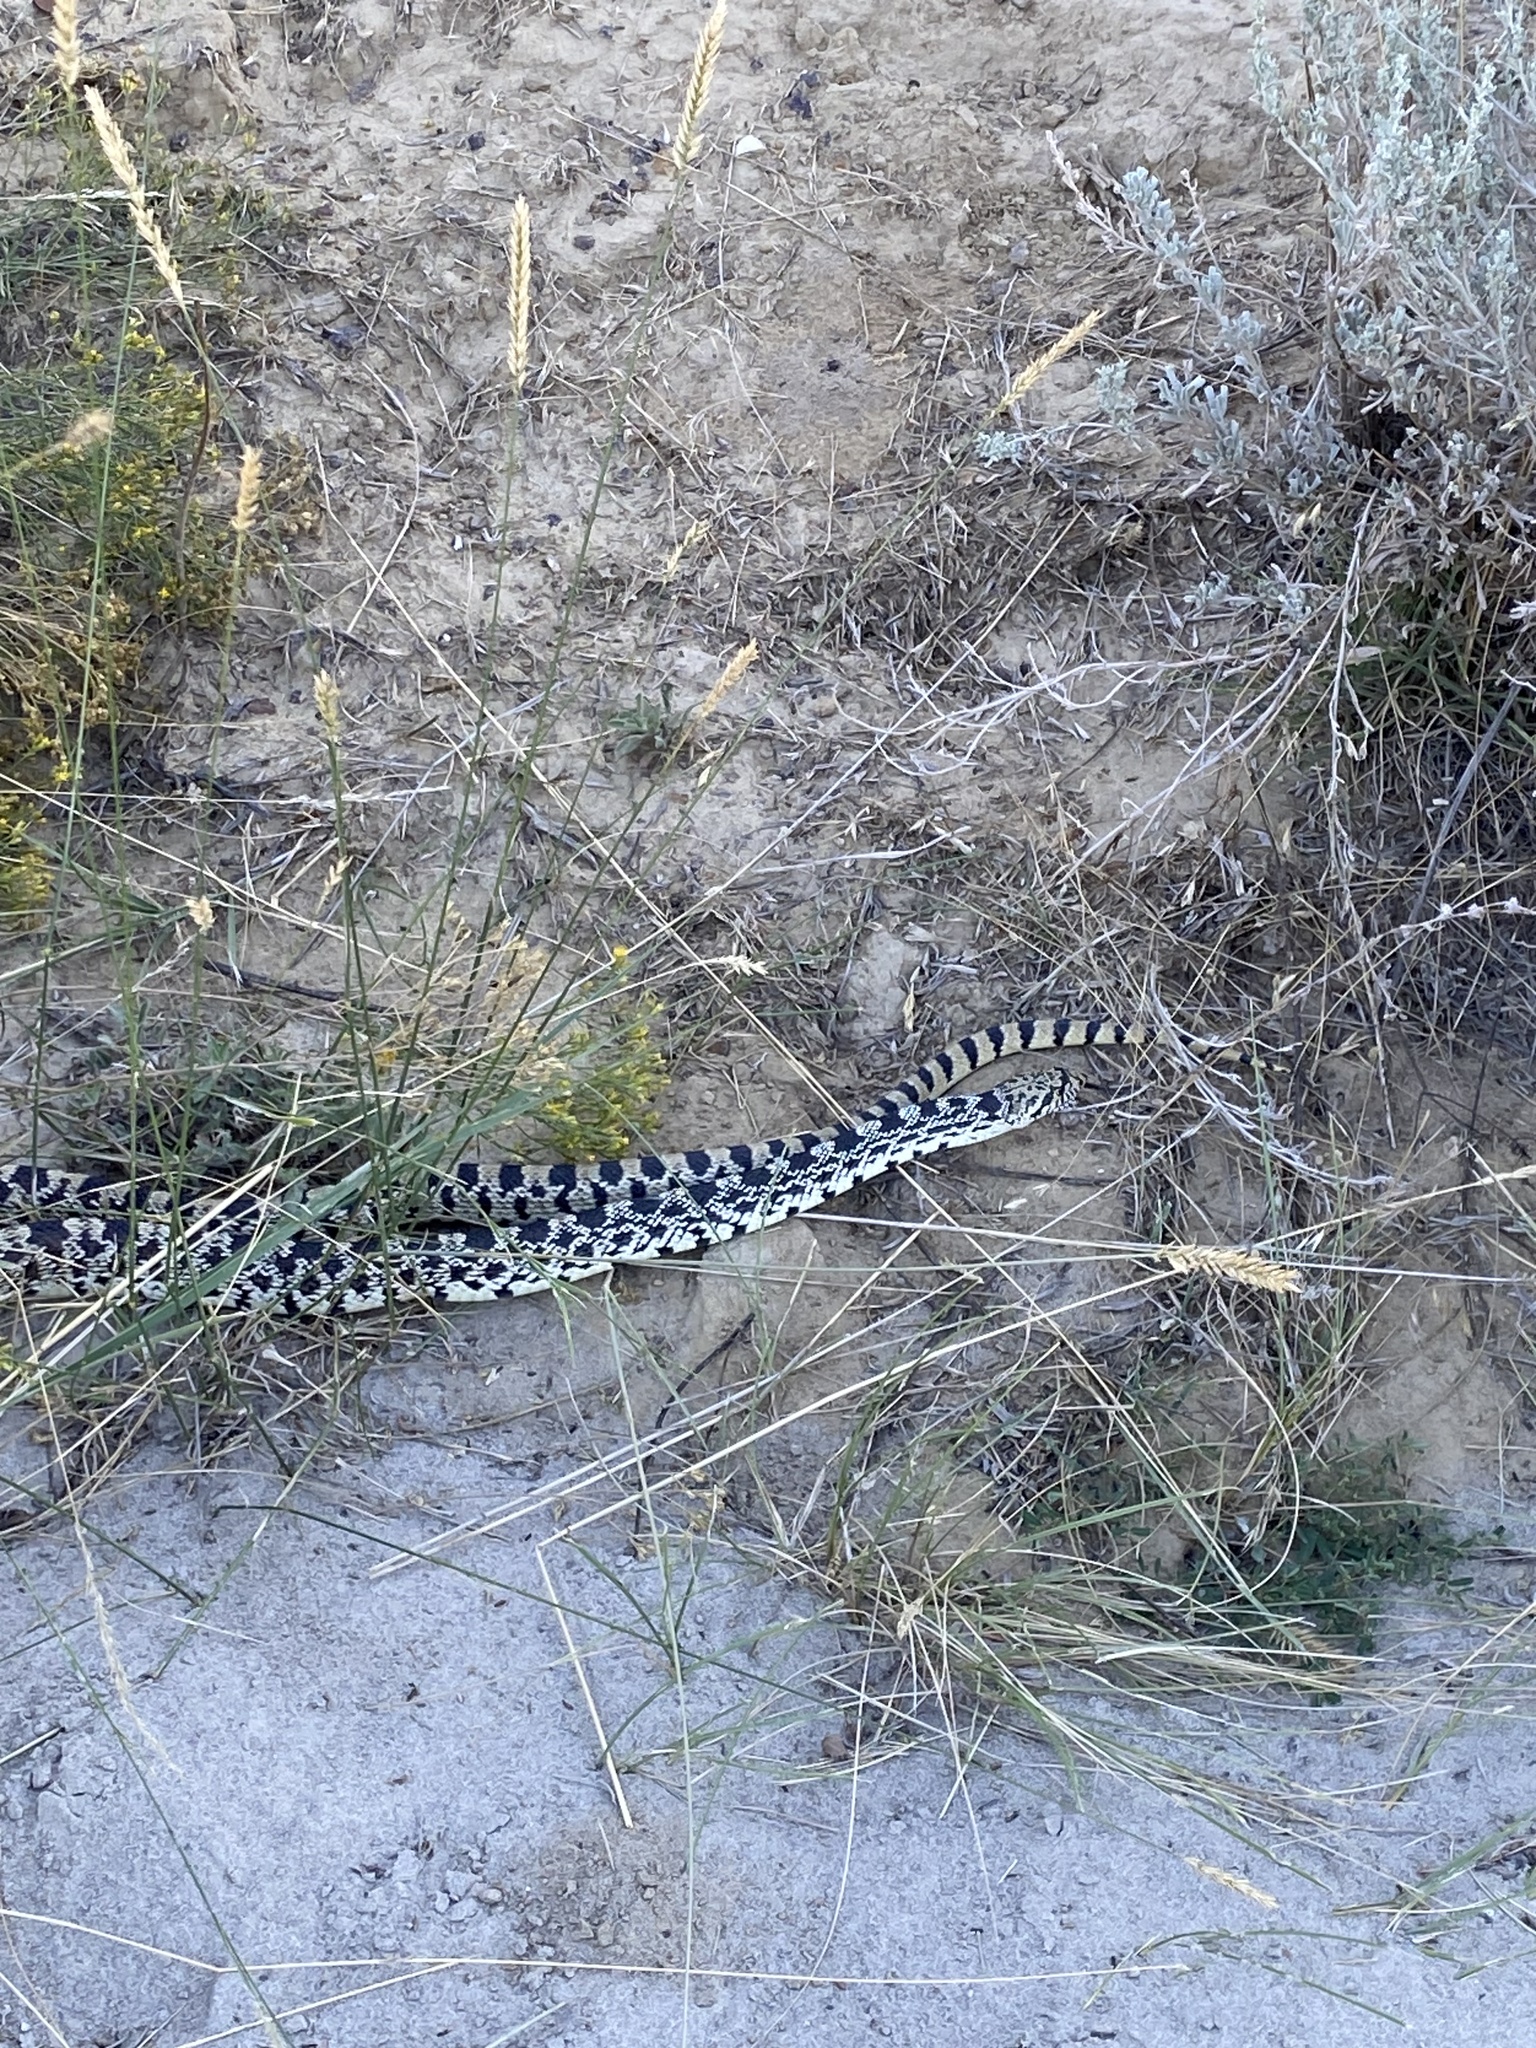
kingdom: Animalia
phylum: Chordata
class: Squamata
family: Colubridae
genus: Pituophis
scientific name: Pituophis catenifer
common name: Gopher snake
